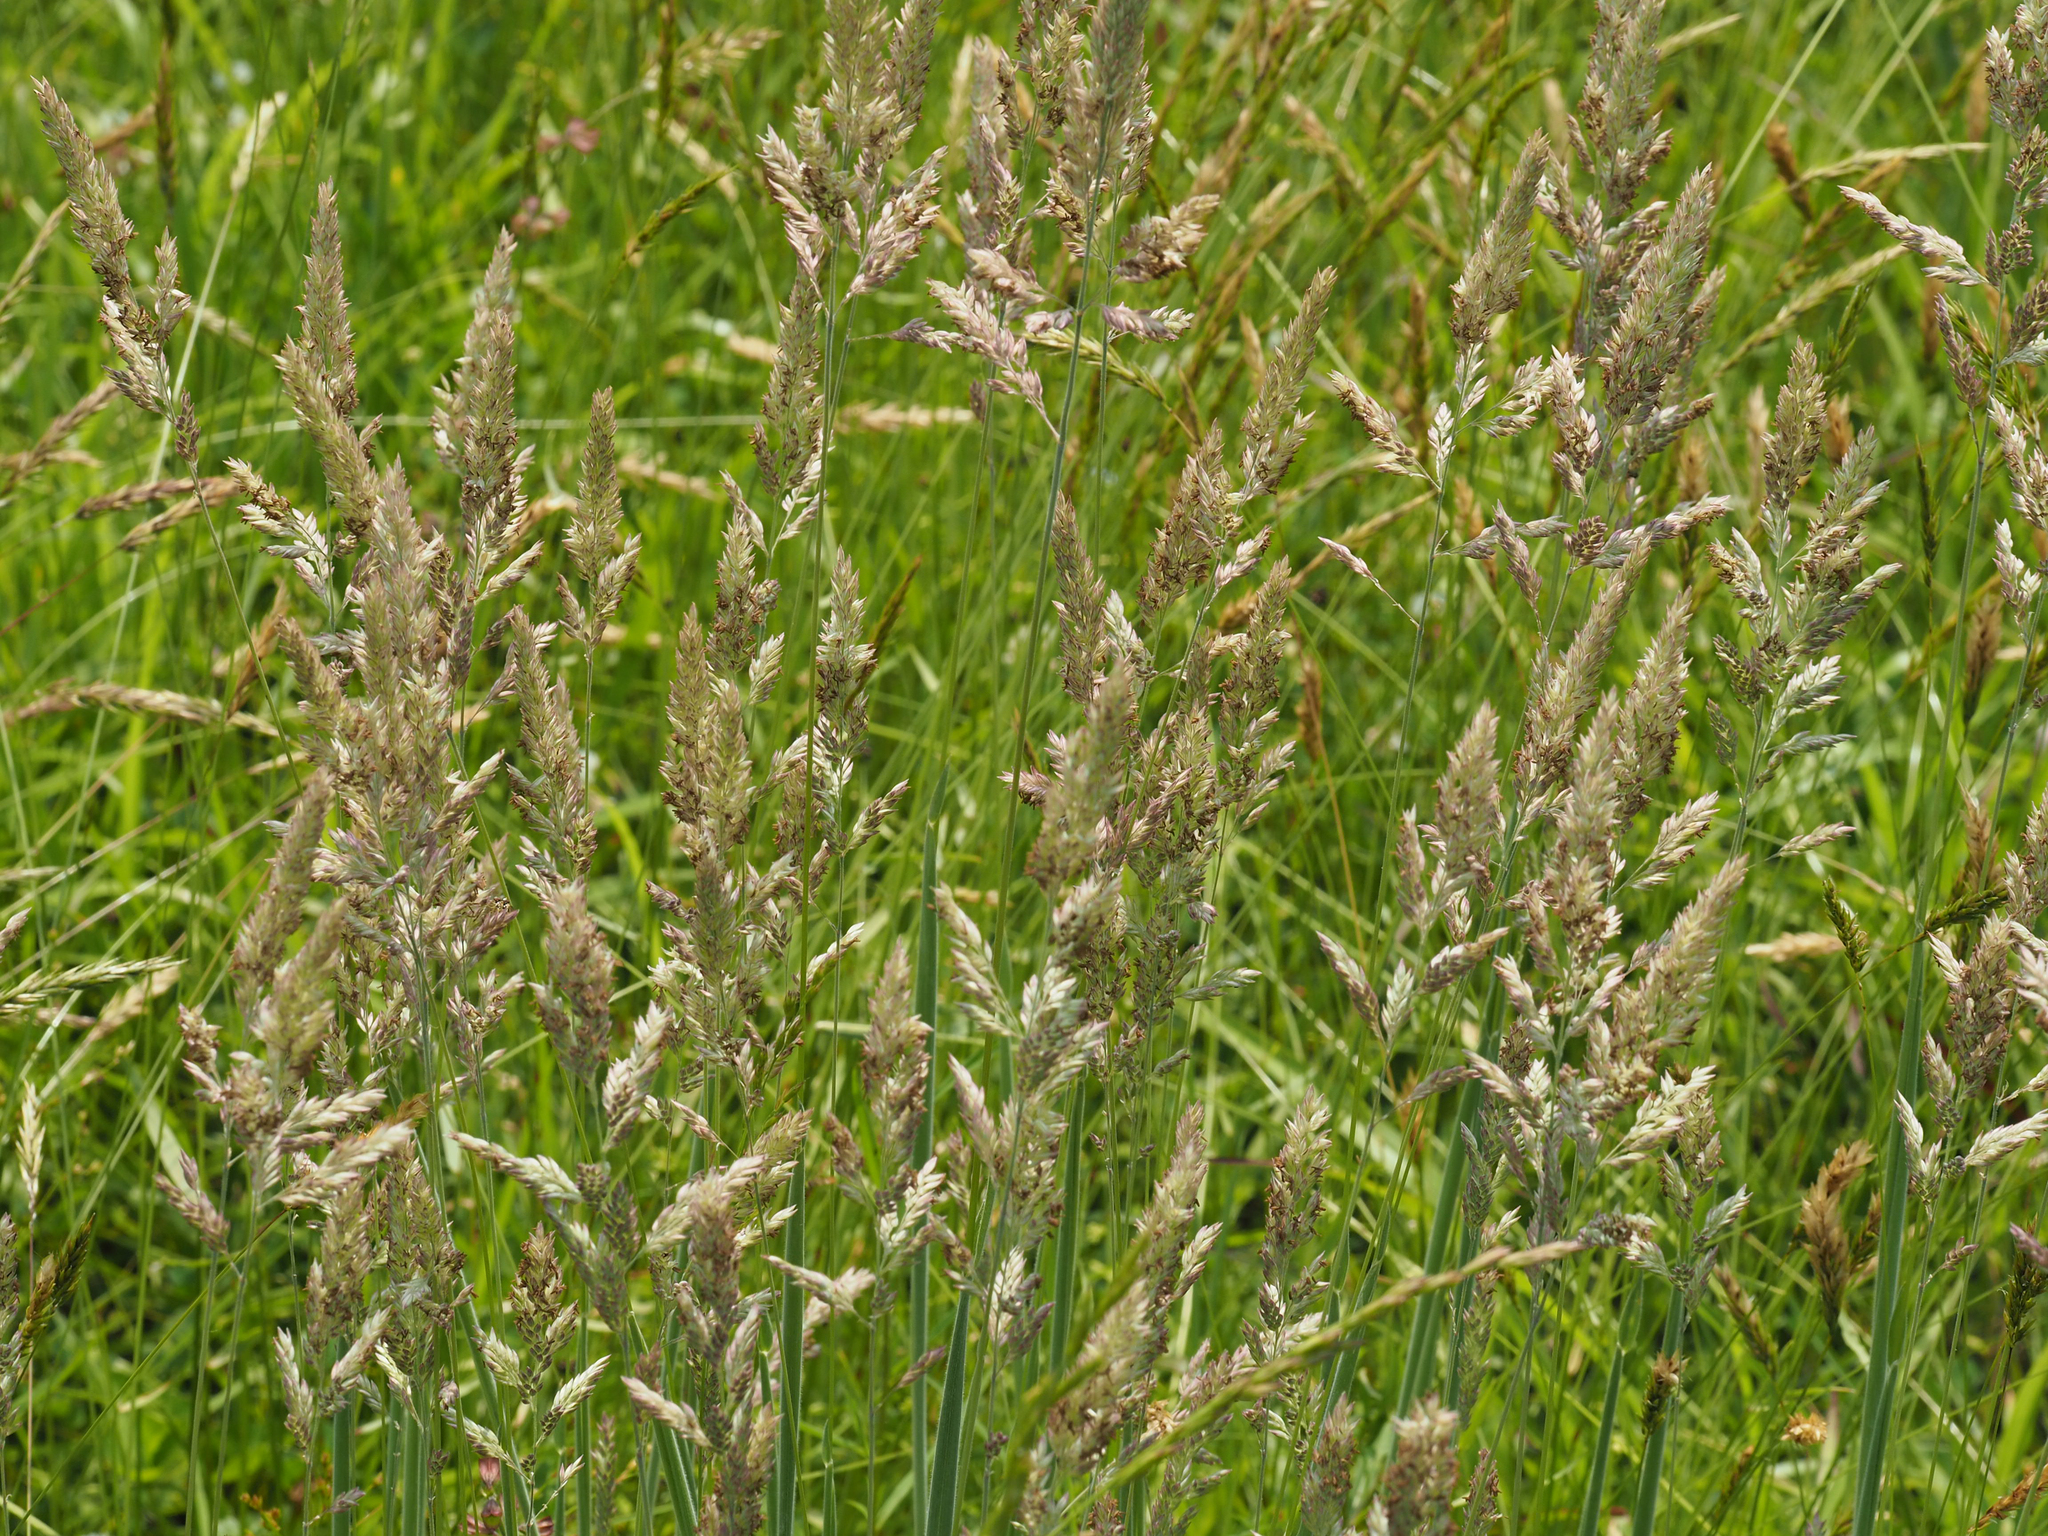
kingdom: Plantae
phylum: Tracheophyta
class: Liliopsida
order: Poales
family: Poaceae
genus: Holcus
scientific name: Holcus lanatus
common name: Yorkshire-fog
